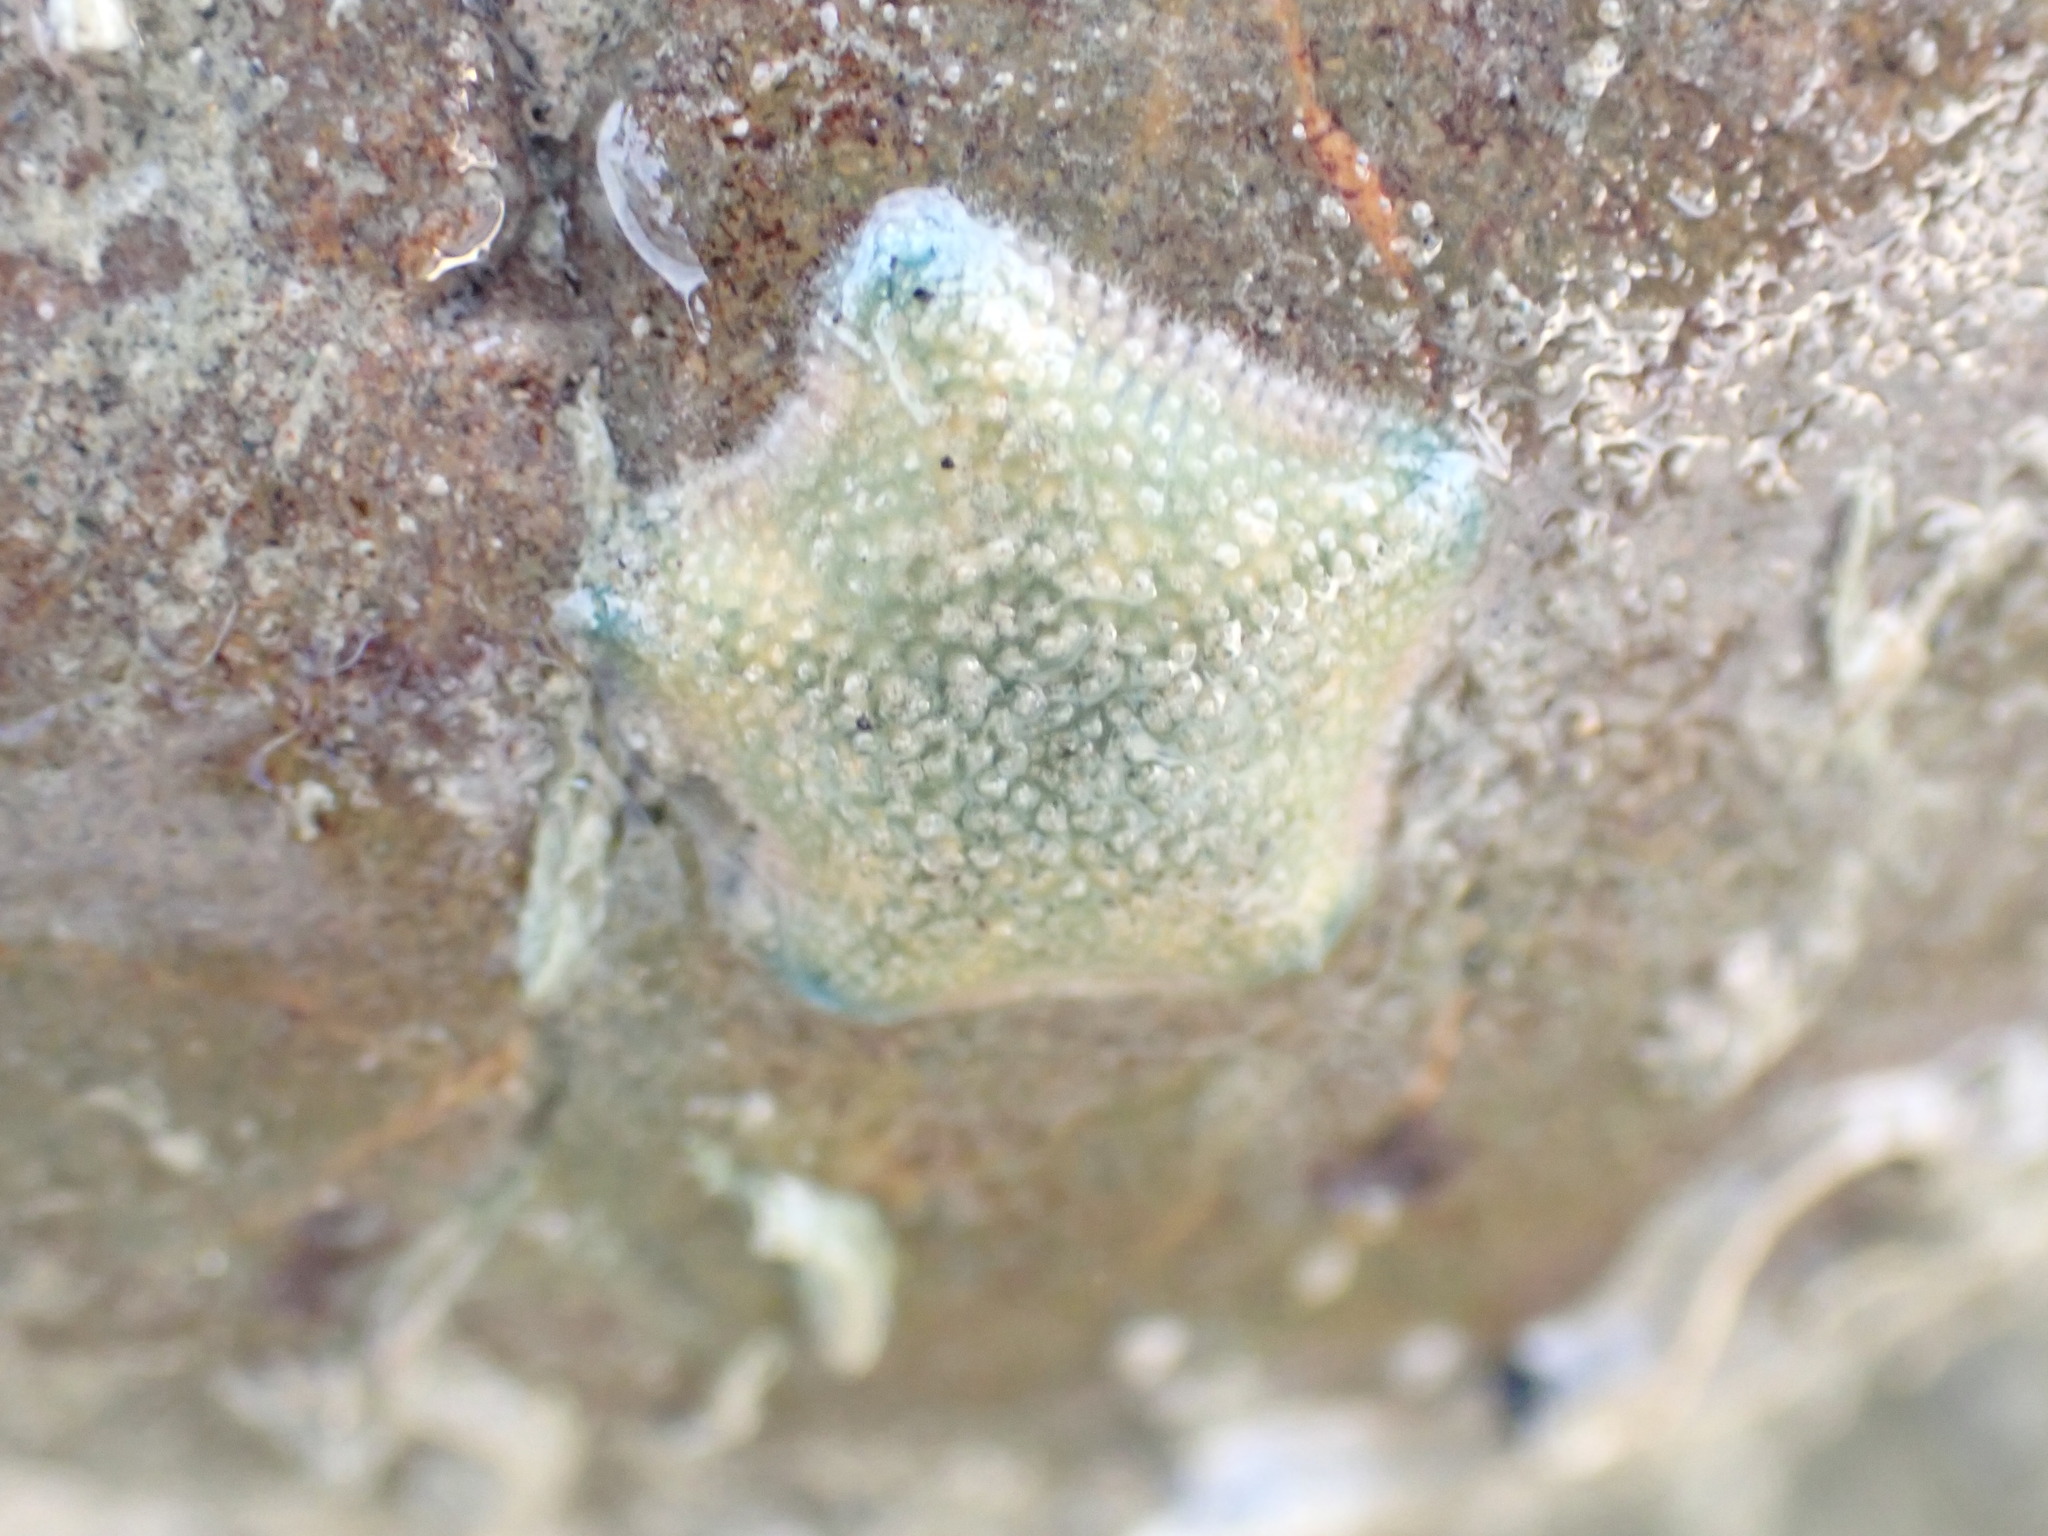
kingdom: Animalia
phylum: Echinodermata
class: Asteroidea
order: Valvatida
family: Asterinidae
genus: Patiriella
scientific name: Patiriella regularis
